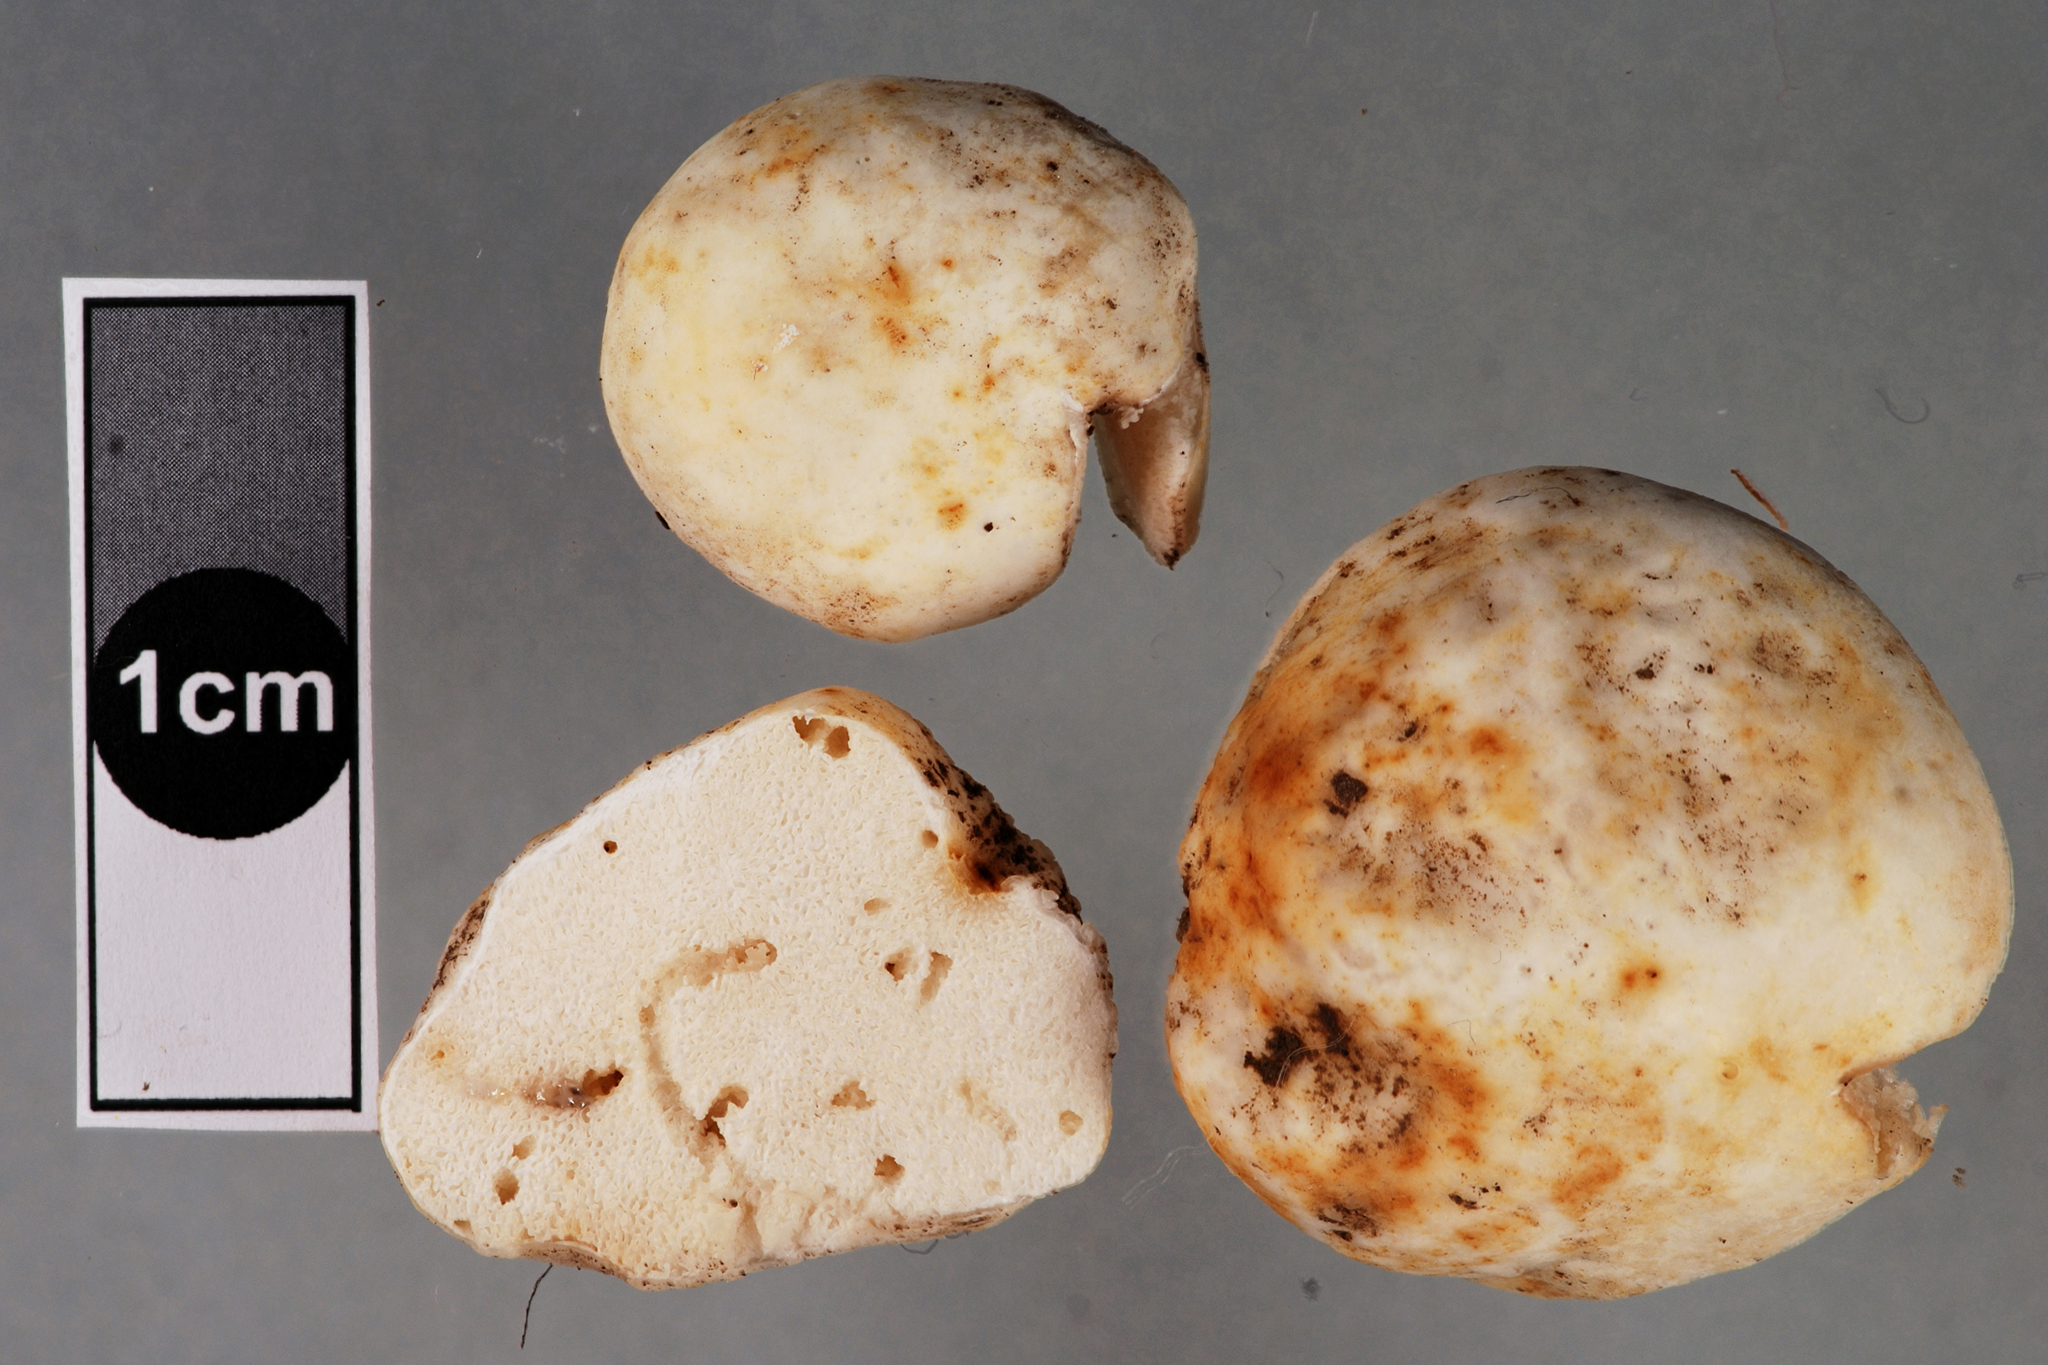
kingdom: Fungi
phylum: Basidiomycota
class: Agaricomycetes
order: Russulales
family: Russulaceae
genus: Russula
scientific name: Russula parvisaxoides
